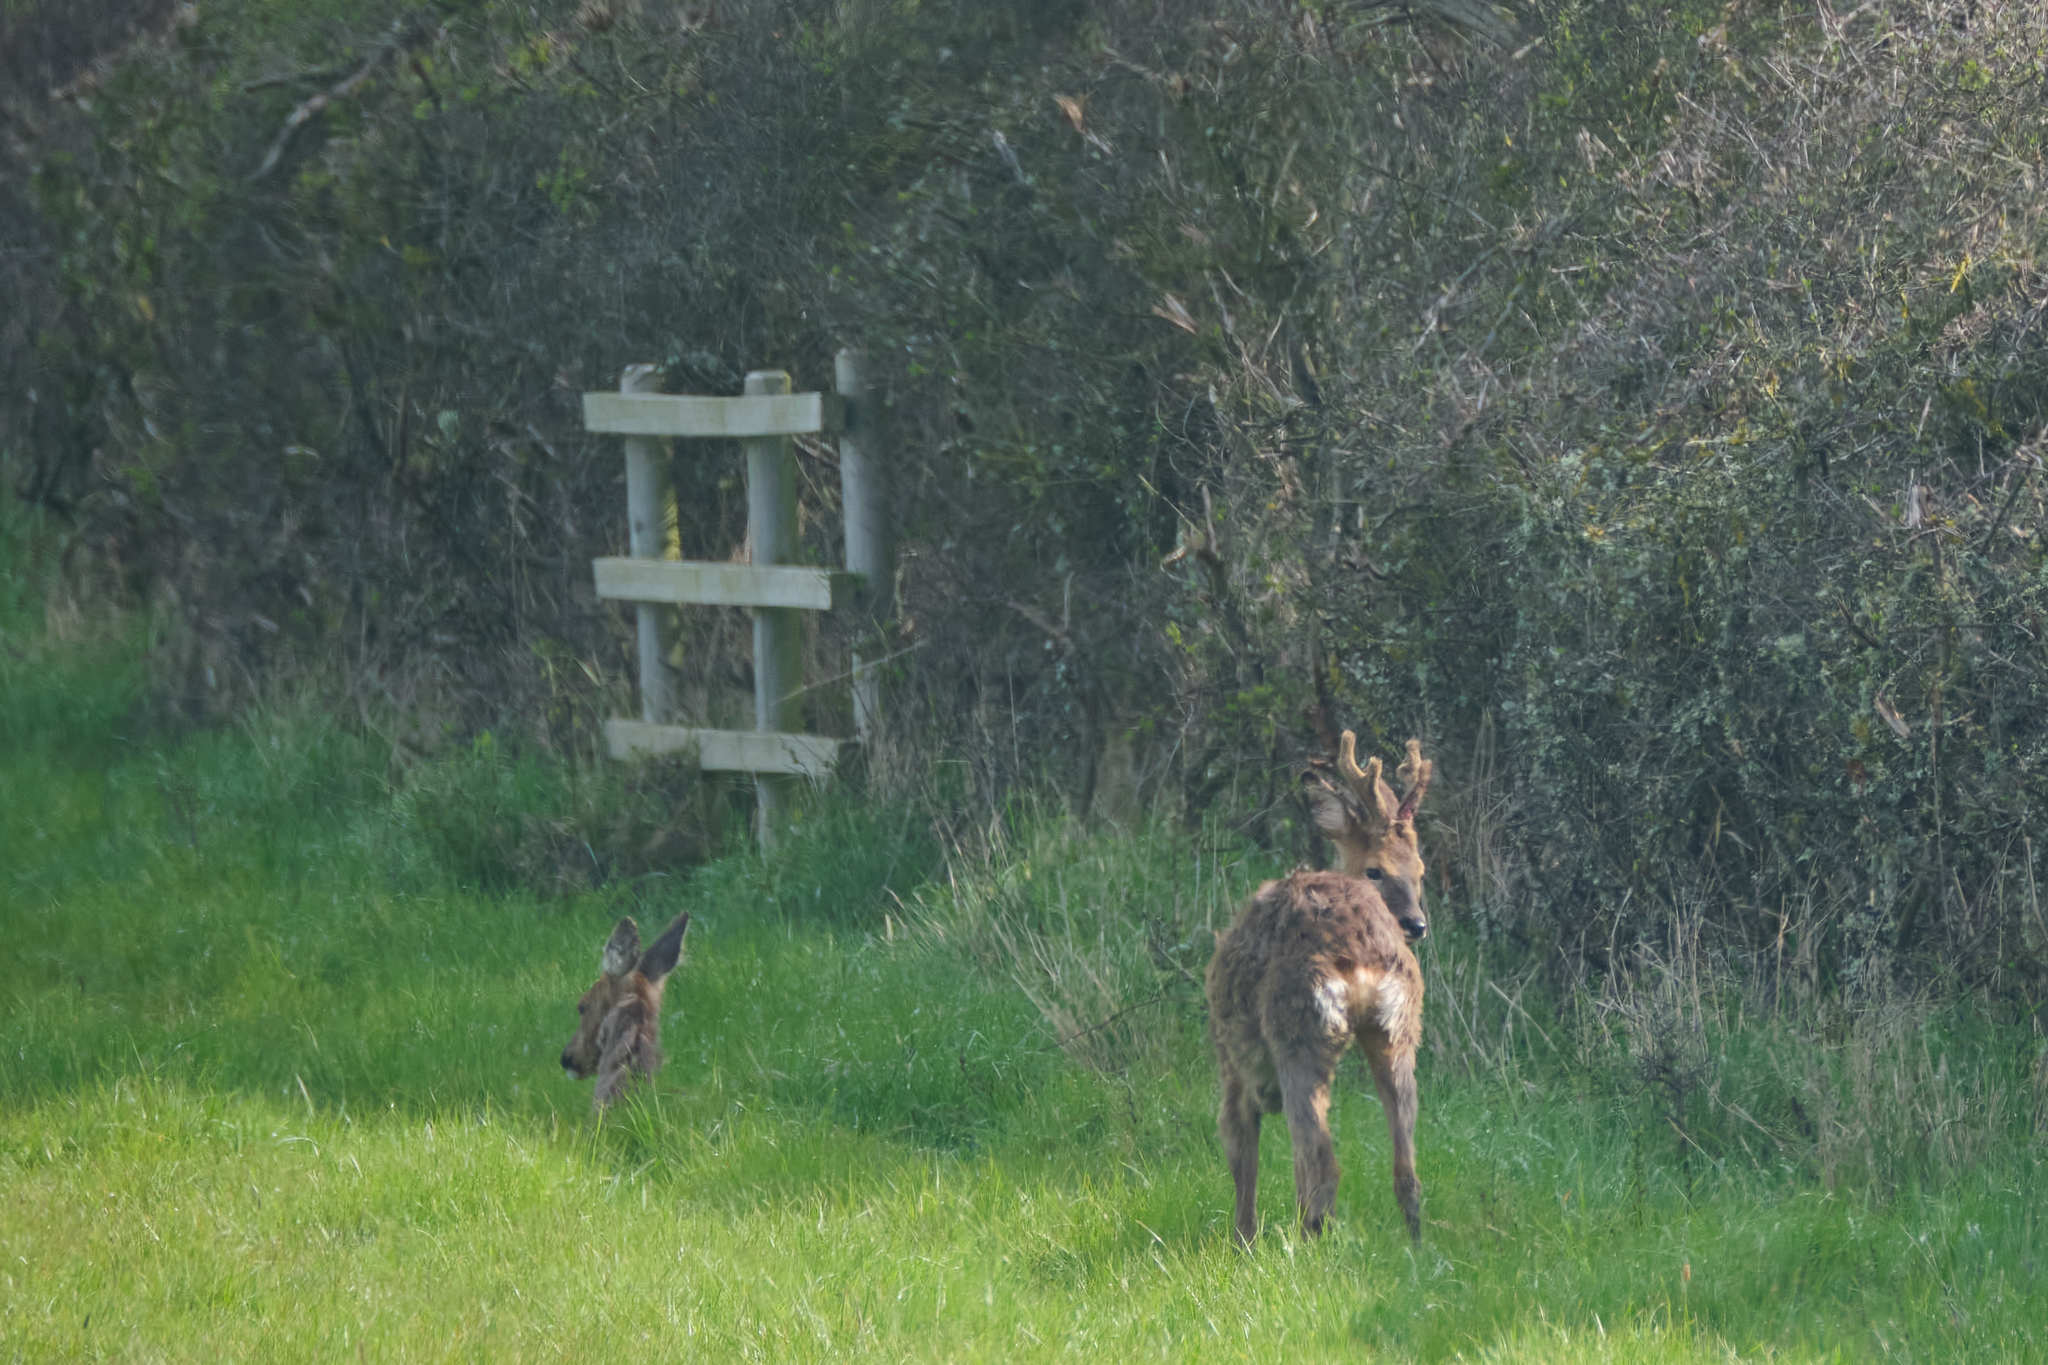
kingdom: Animalia
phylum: Chordata
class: Mammalia
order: Artiodactyla
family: Cervidae
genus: Capreolus
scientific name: Capreolus capreolus
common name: Western roe deer
